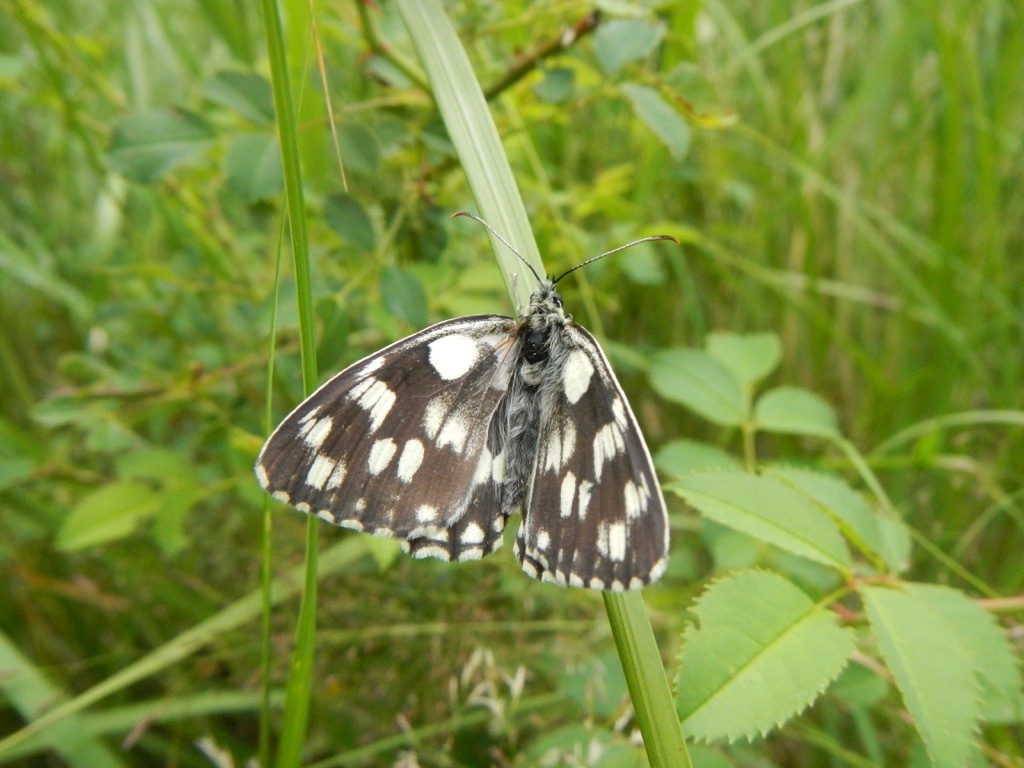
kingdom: Animalia
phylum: Arthropoda
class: Insecta
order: Lepidoptera
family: Nymphalidae
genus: Melanargia
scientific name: Melanargia galathea
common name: Marbled white
